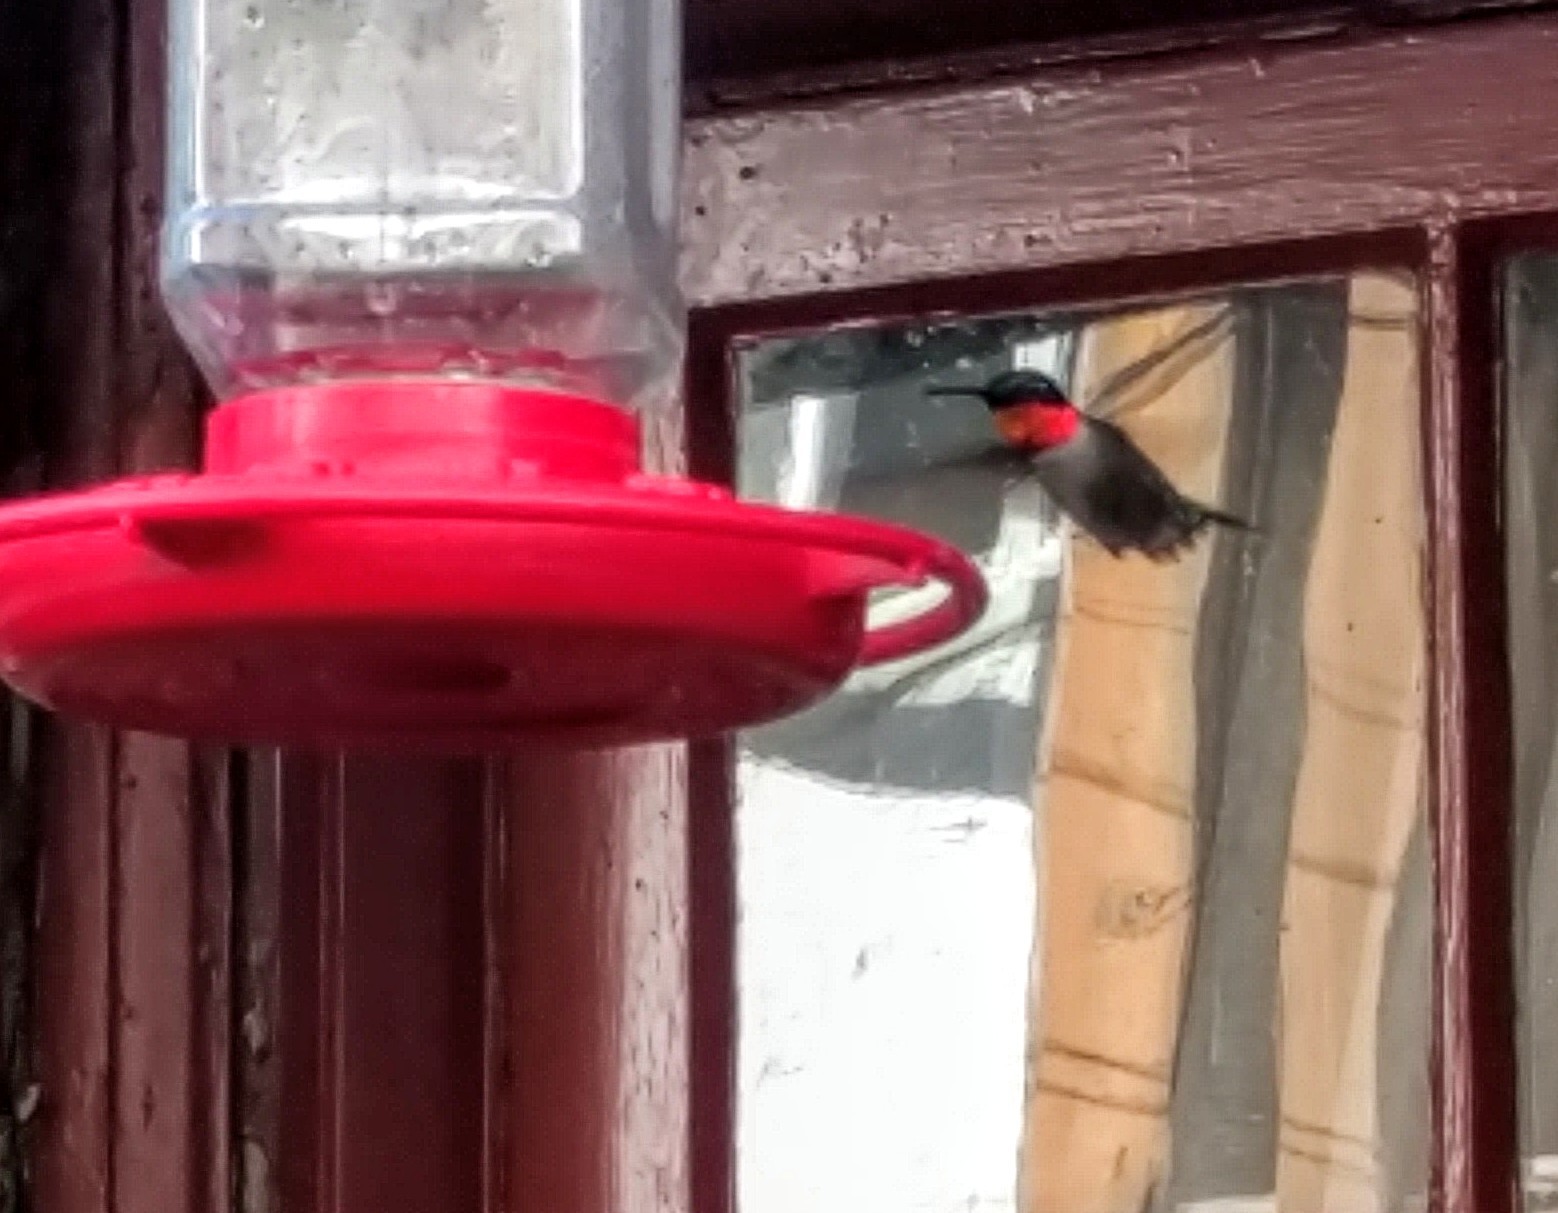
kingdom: Animalia
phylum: Chordata
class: Aves
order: Apodiformes
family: Trochilidae
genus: Archilochus
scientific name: Archilochus colubris
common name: Ruby-throated hummingbird
